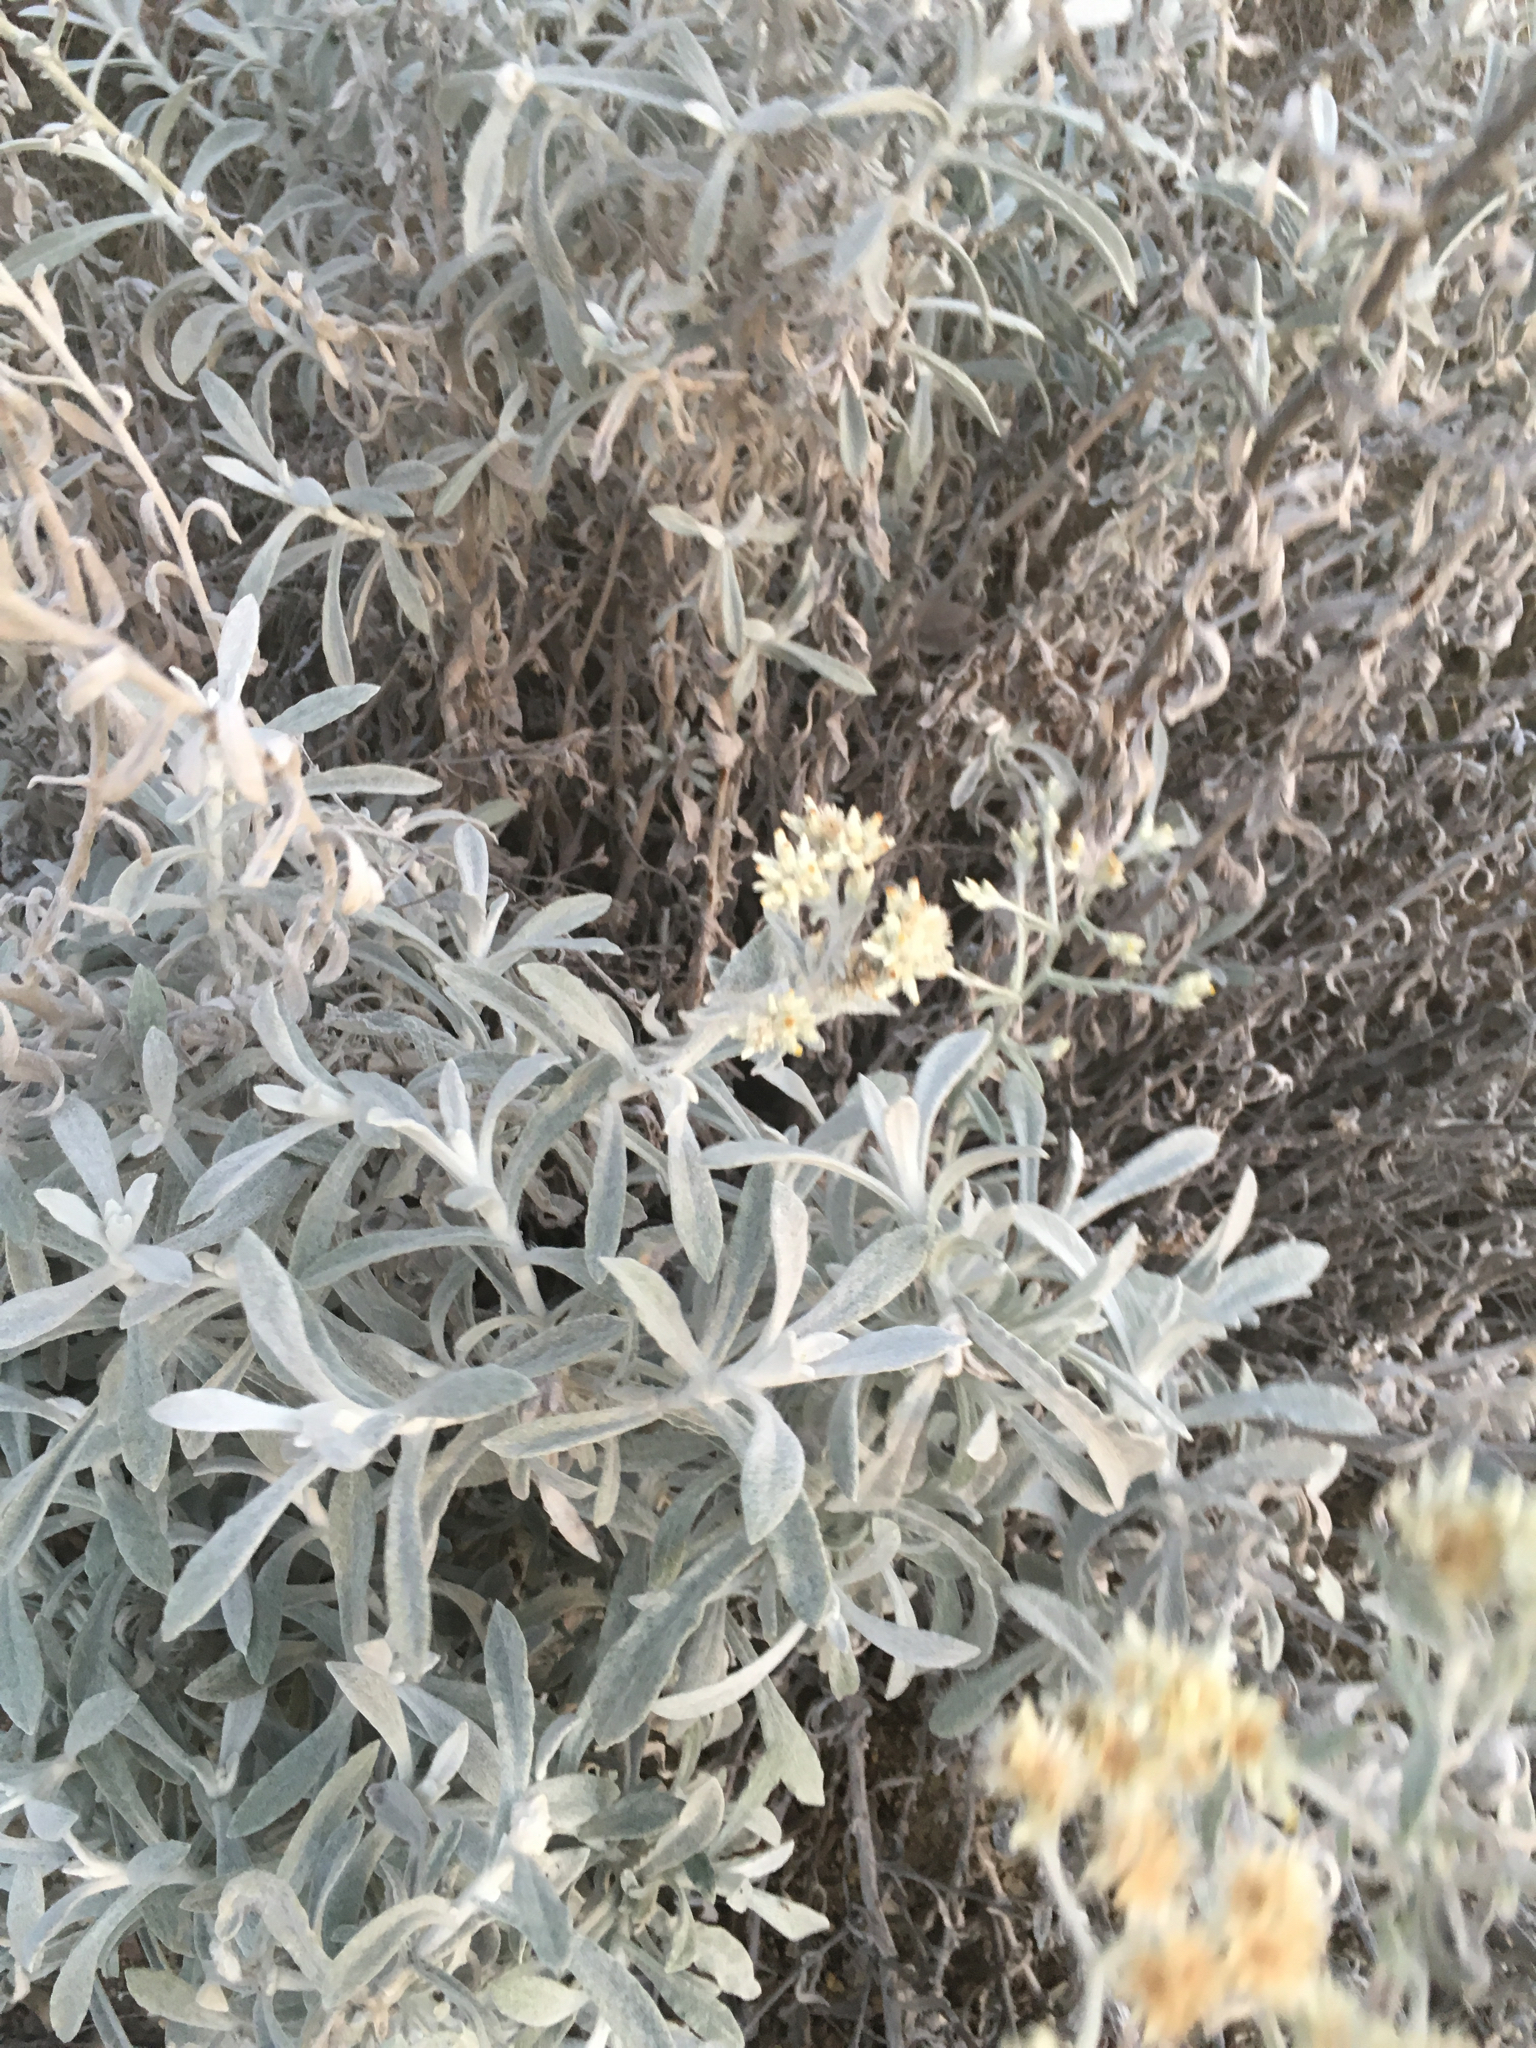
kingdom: Plantae
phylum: Tracheophyta
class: Magnoliopsida
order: Asterales
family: Asteraceae
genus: Pseudognaphalium
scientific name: Pseudognaphalium microcephalum
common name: San diego rabbit-tobacco
